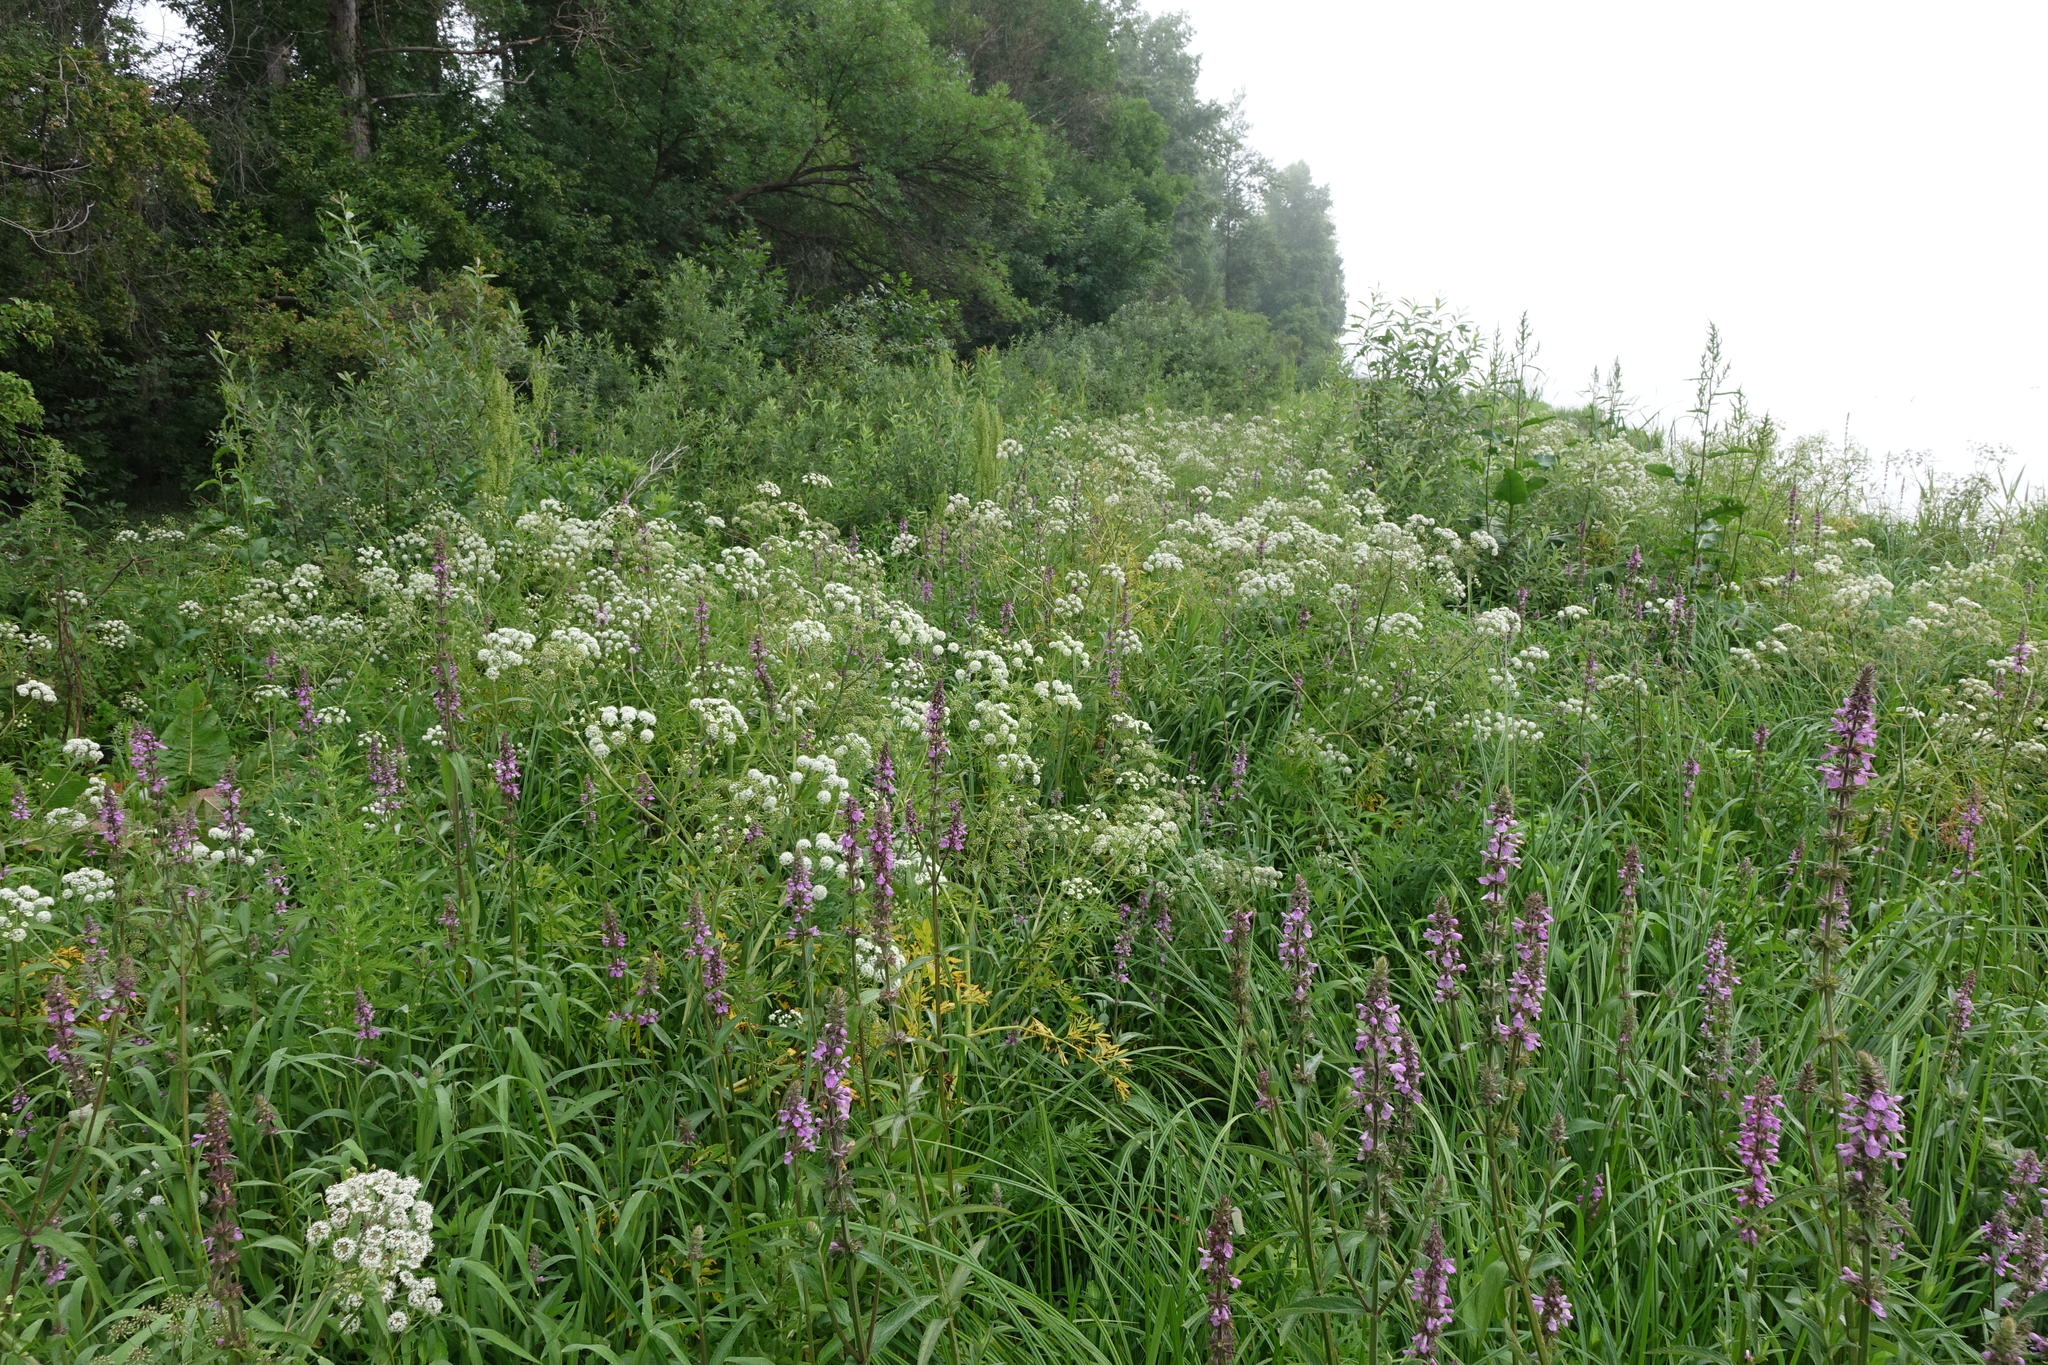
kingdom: Plantae
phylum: Tracheophyta
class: Magnoliopsida
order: Apiales
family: Apiaceae
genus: Cicuta
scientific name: Cicuta virosa
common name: Cowbane
